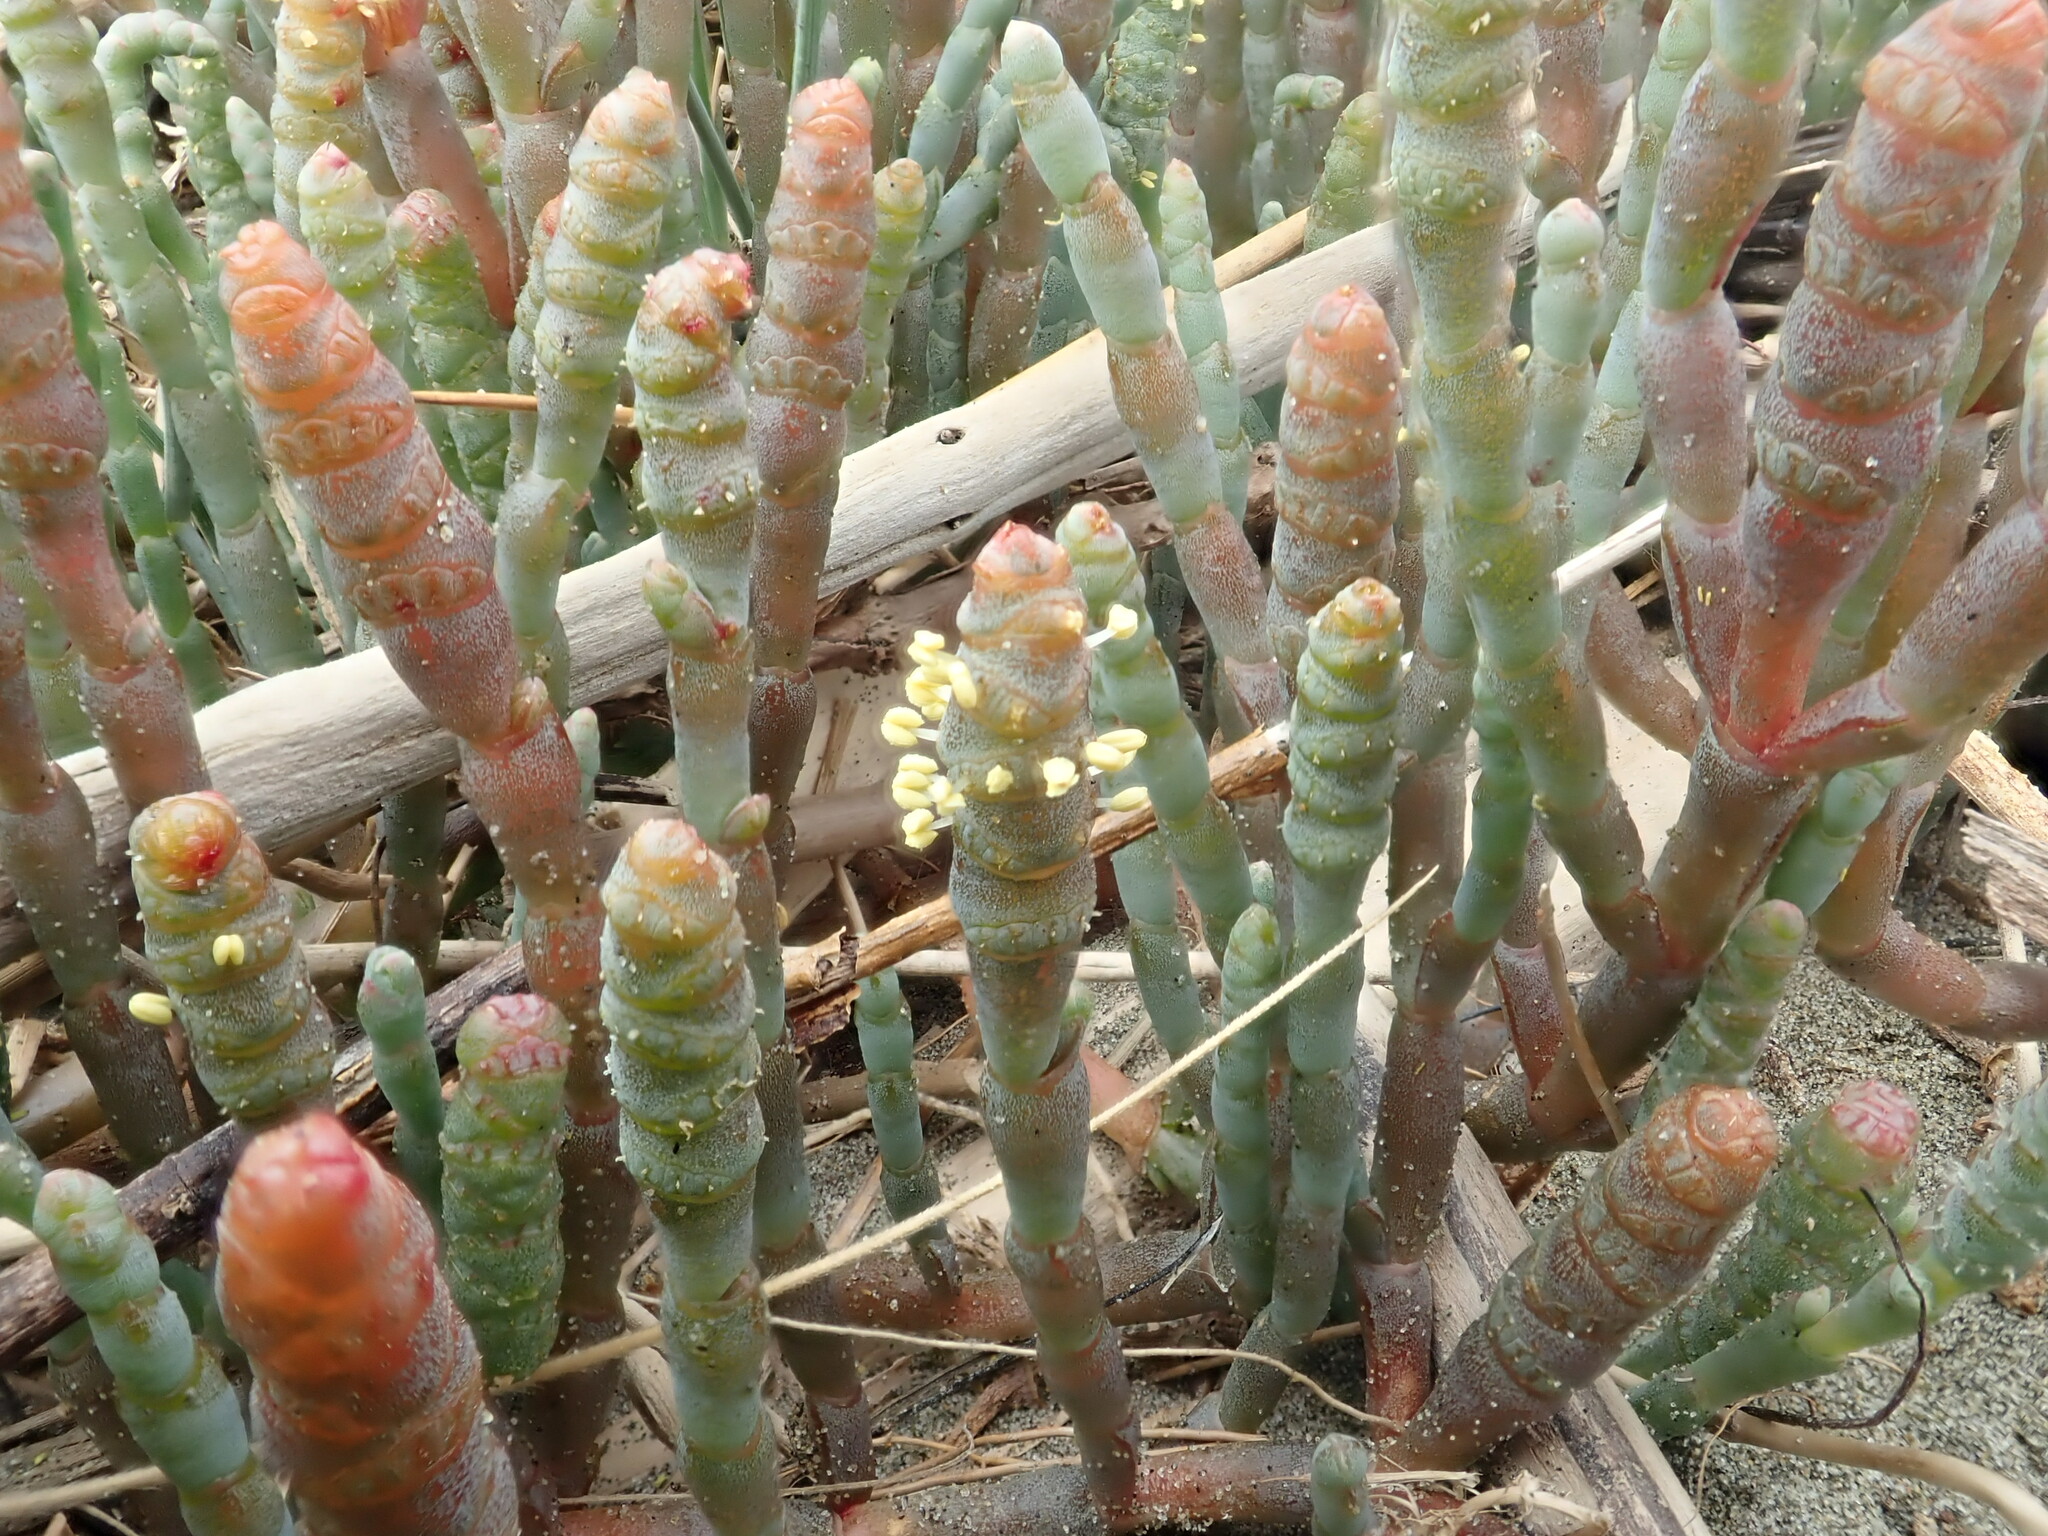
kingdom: Plantae
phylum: Tracheophyta
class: Magnoliopsida
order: Caryophyllales
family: Amaranthaceae
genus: Salicornia
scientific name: Salicornia quinqueflora
